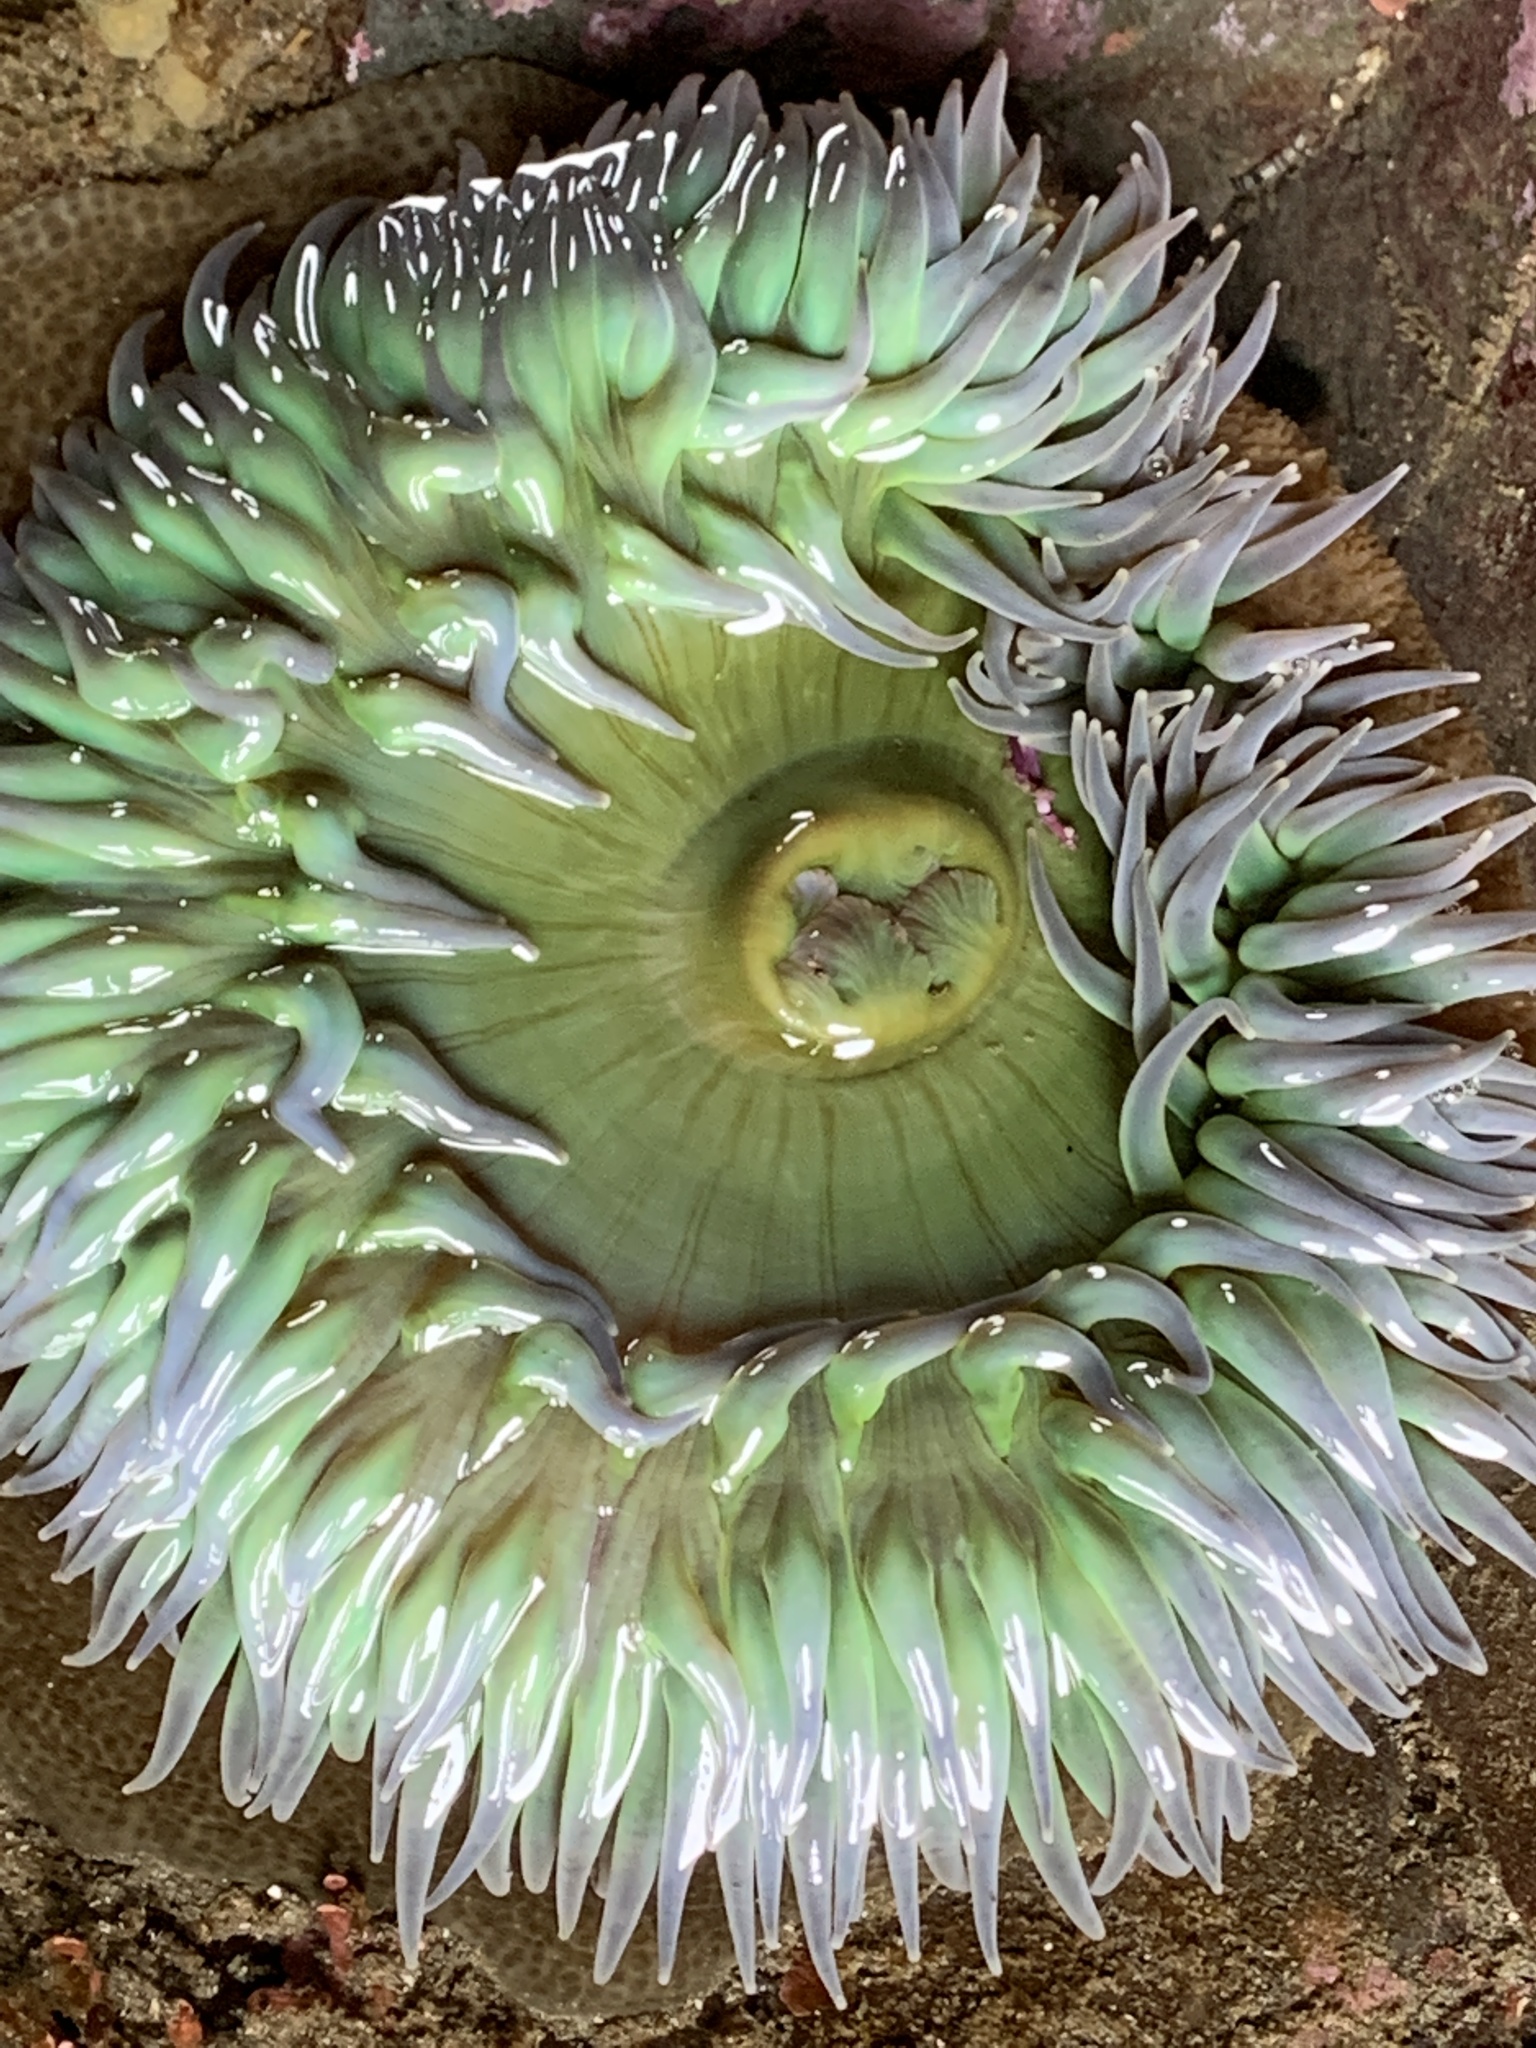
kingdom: Animalia
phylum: Cnidaria
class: Anthozoa
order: Actiniaria
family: Actiniidae
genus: Anthopleura
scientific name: Anthopleura xanthogrammica
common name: Giant green anemone
